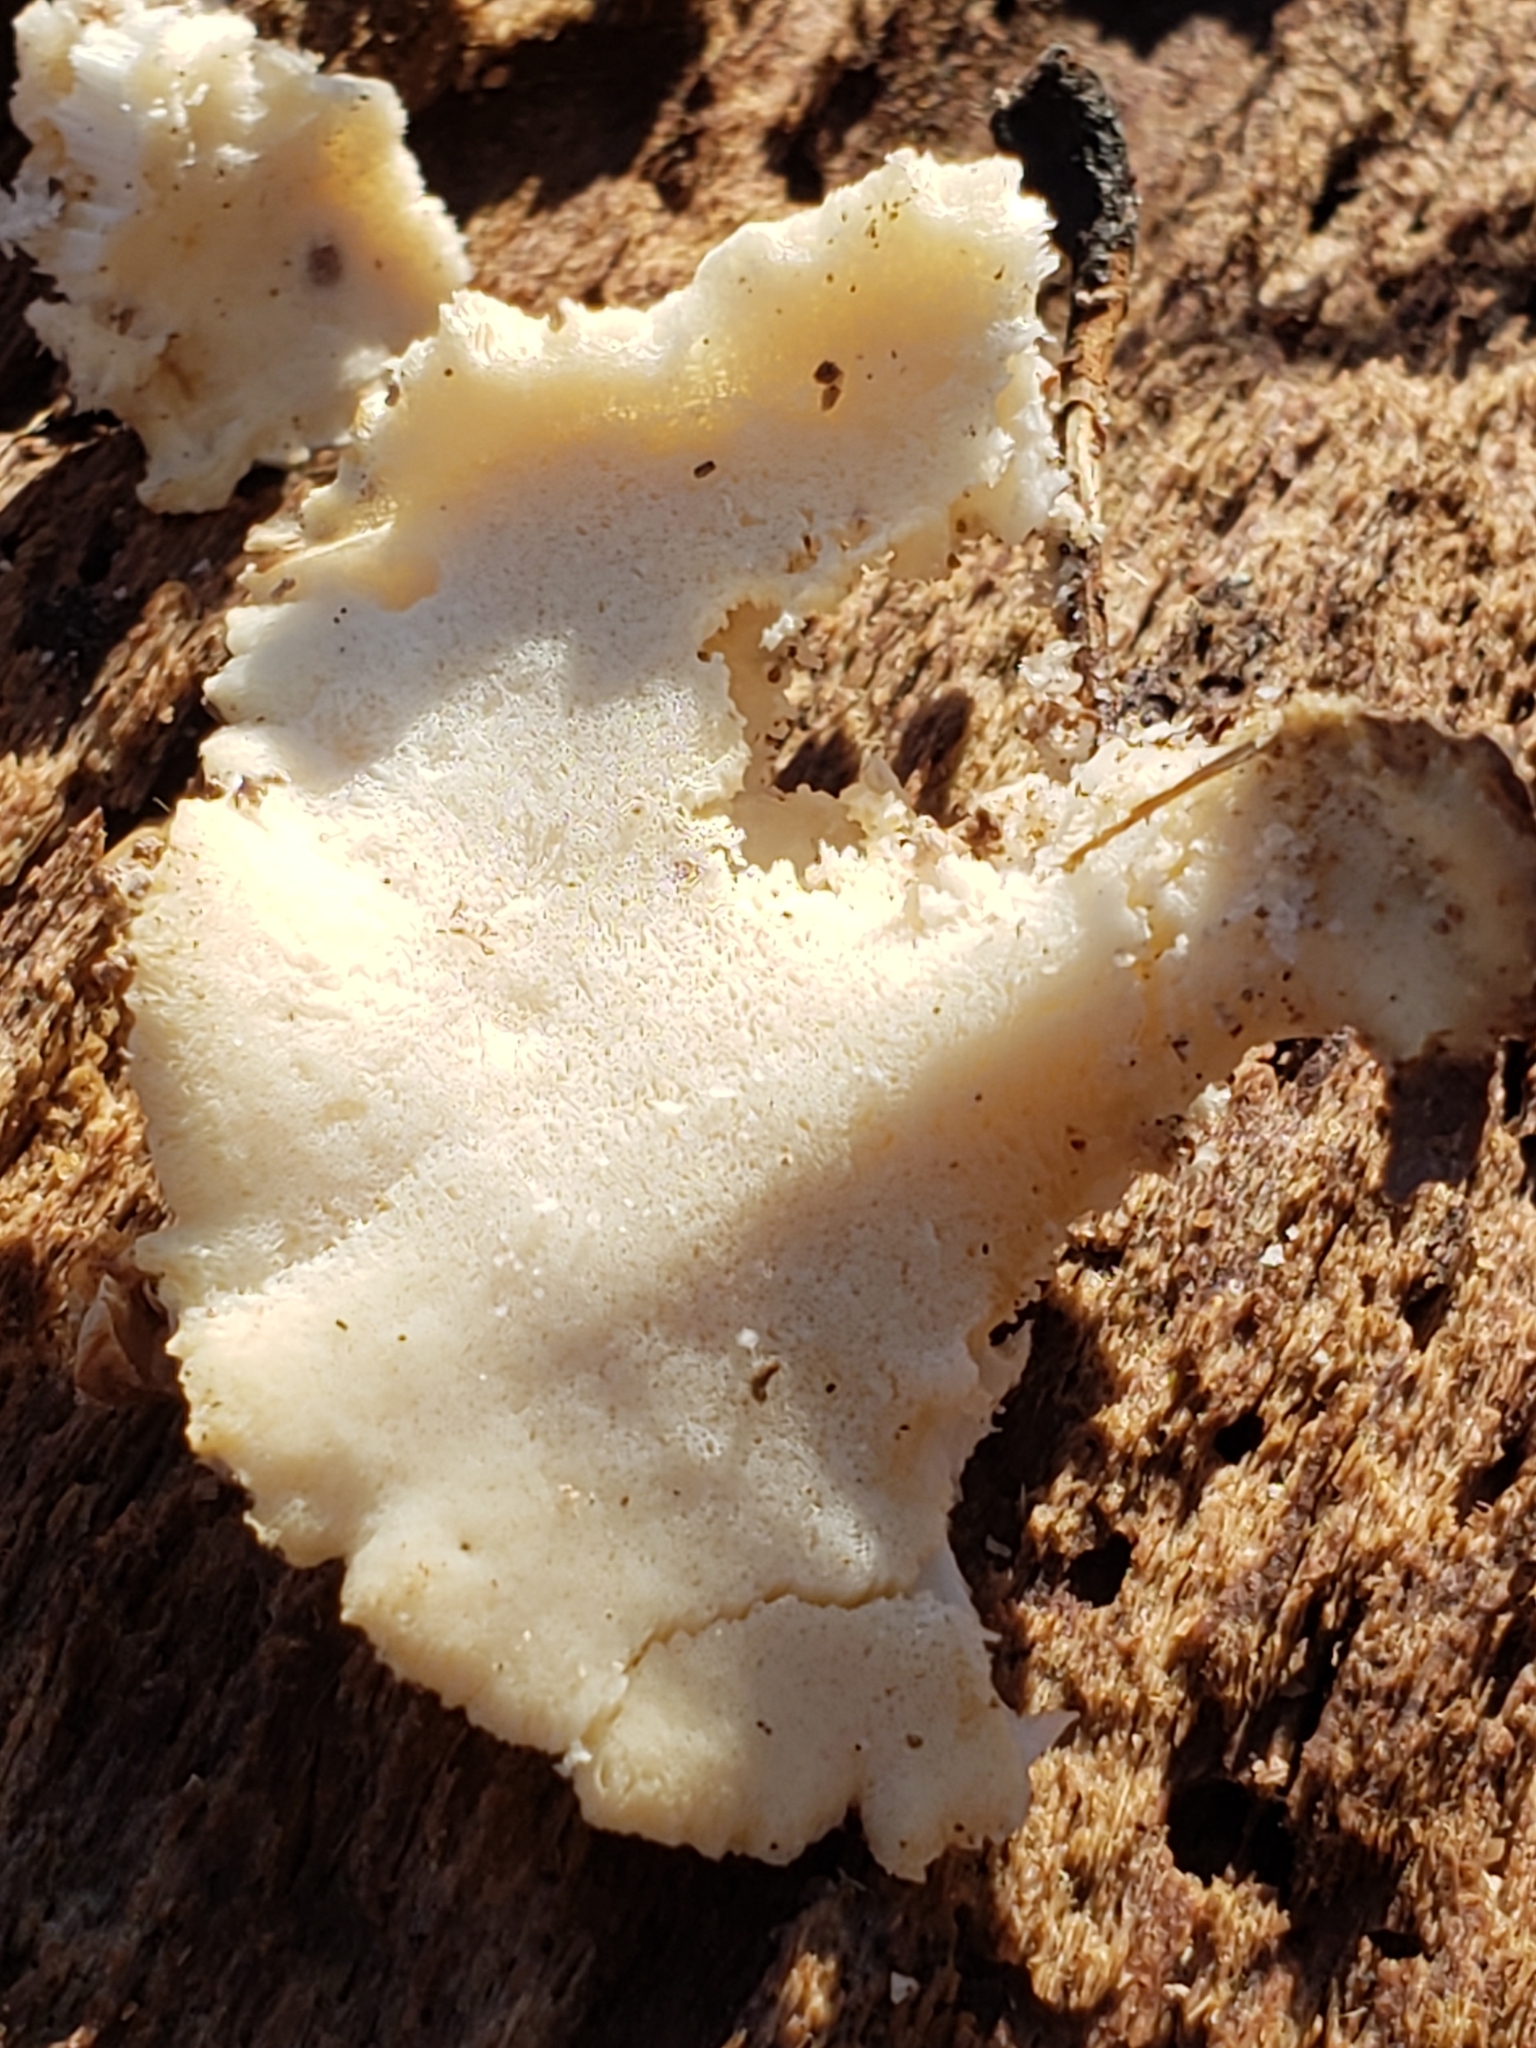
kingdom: Fungi
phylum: Basidiomycota
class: Agaricomycetes
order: Polyporales
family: Incrustoporiaceae
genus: Tyromyces
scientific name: Tyromyces chioneus
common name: White cheese polypore
